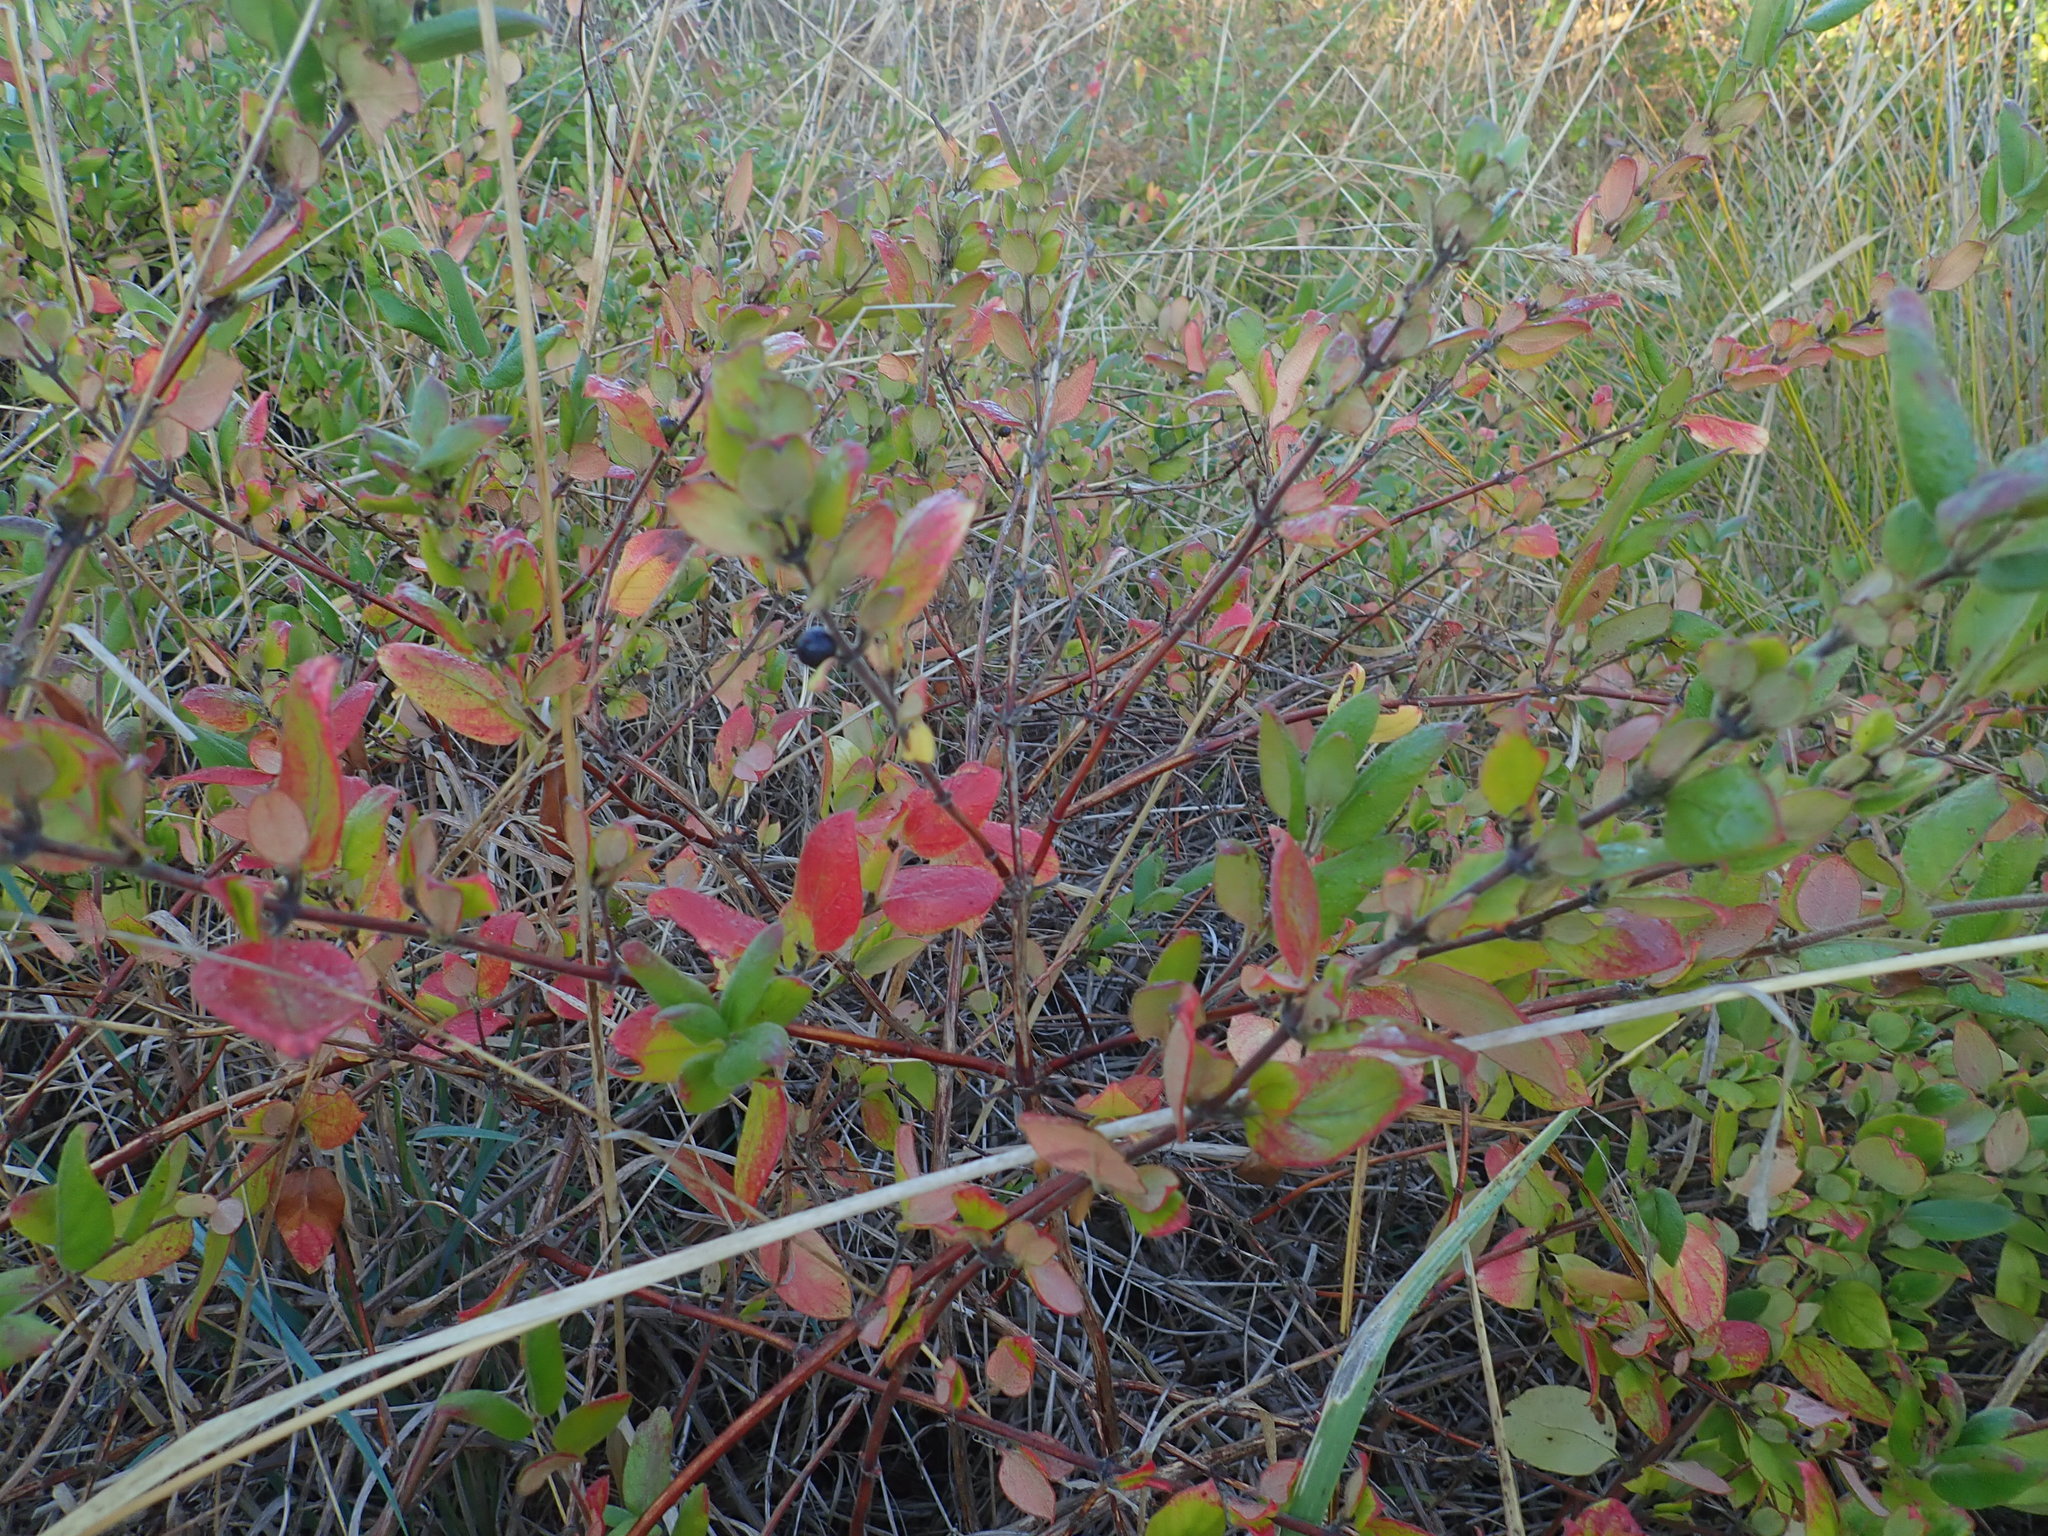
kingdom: Plantae
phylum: Tracheophyta
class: Magnoliopsida
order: Dipsacales
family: Caprifoliaceae
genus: Lonicera
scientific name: Lonicera japonica
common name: Japanese honeysuckle
